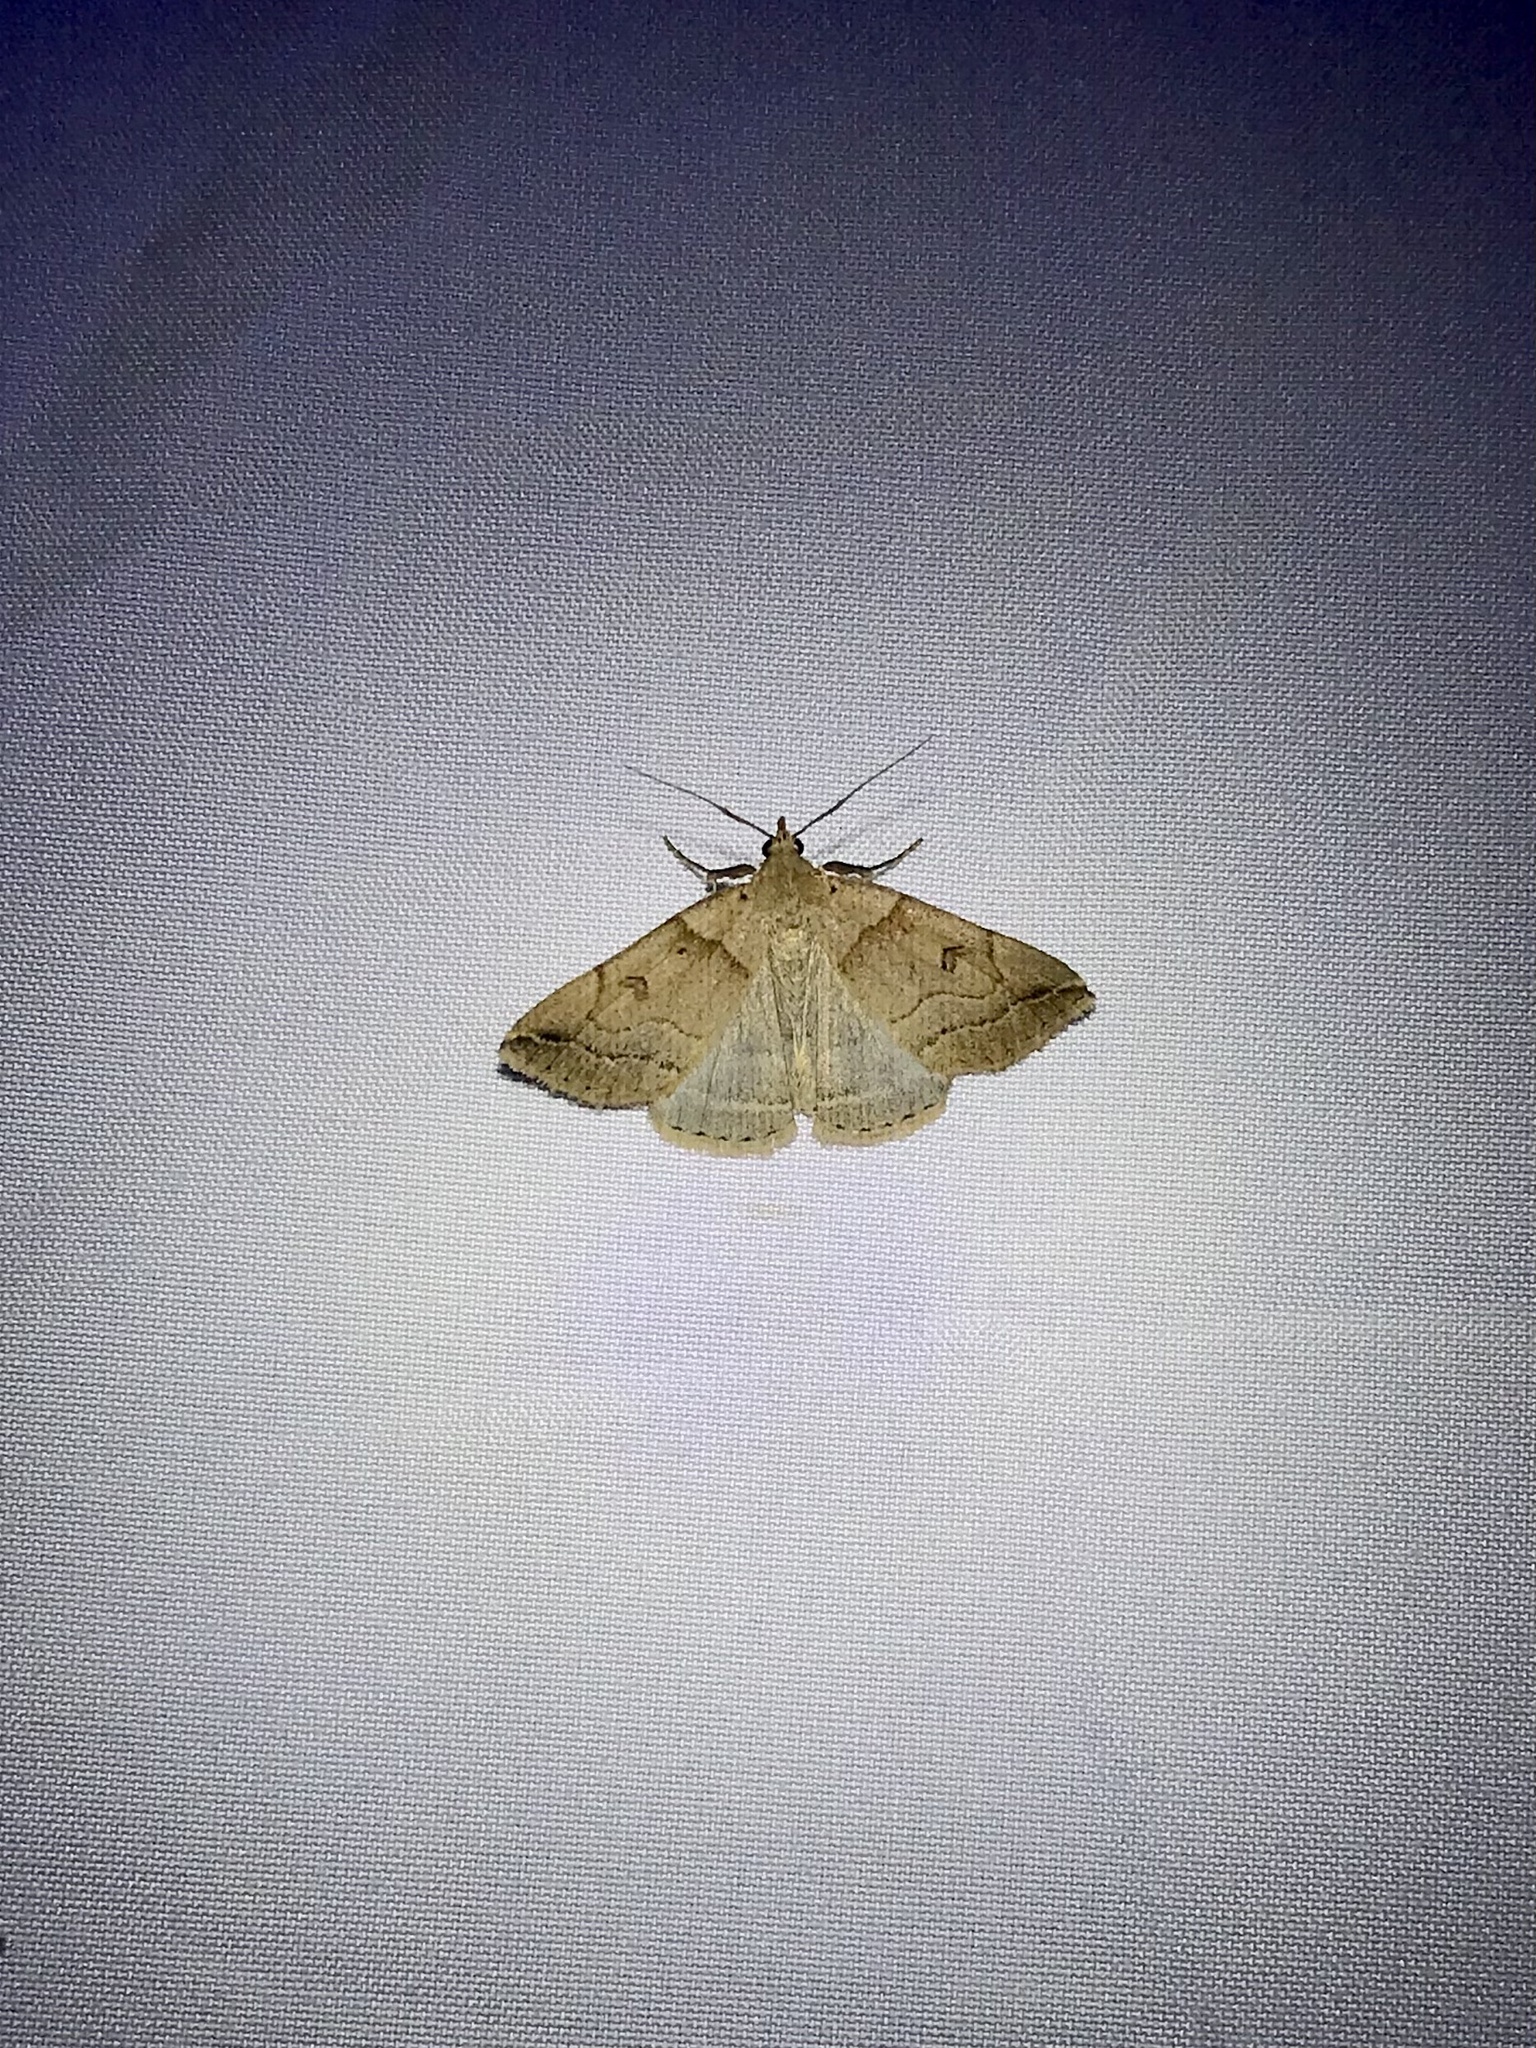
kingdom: Animalia
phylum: Arthropoda
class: Insecta
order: Lepidoptera
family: Erebidae
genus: Zanclognatha
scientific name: Zanclognatha laevigata
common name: Variable fan-foot
